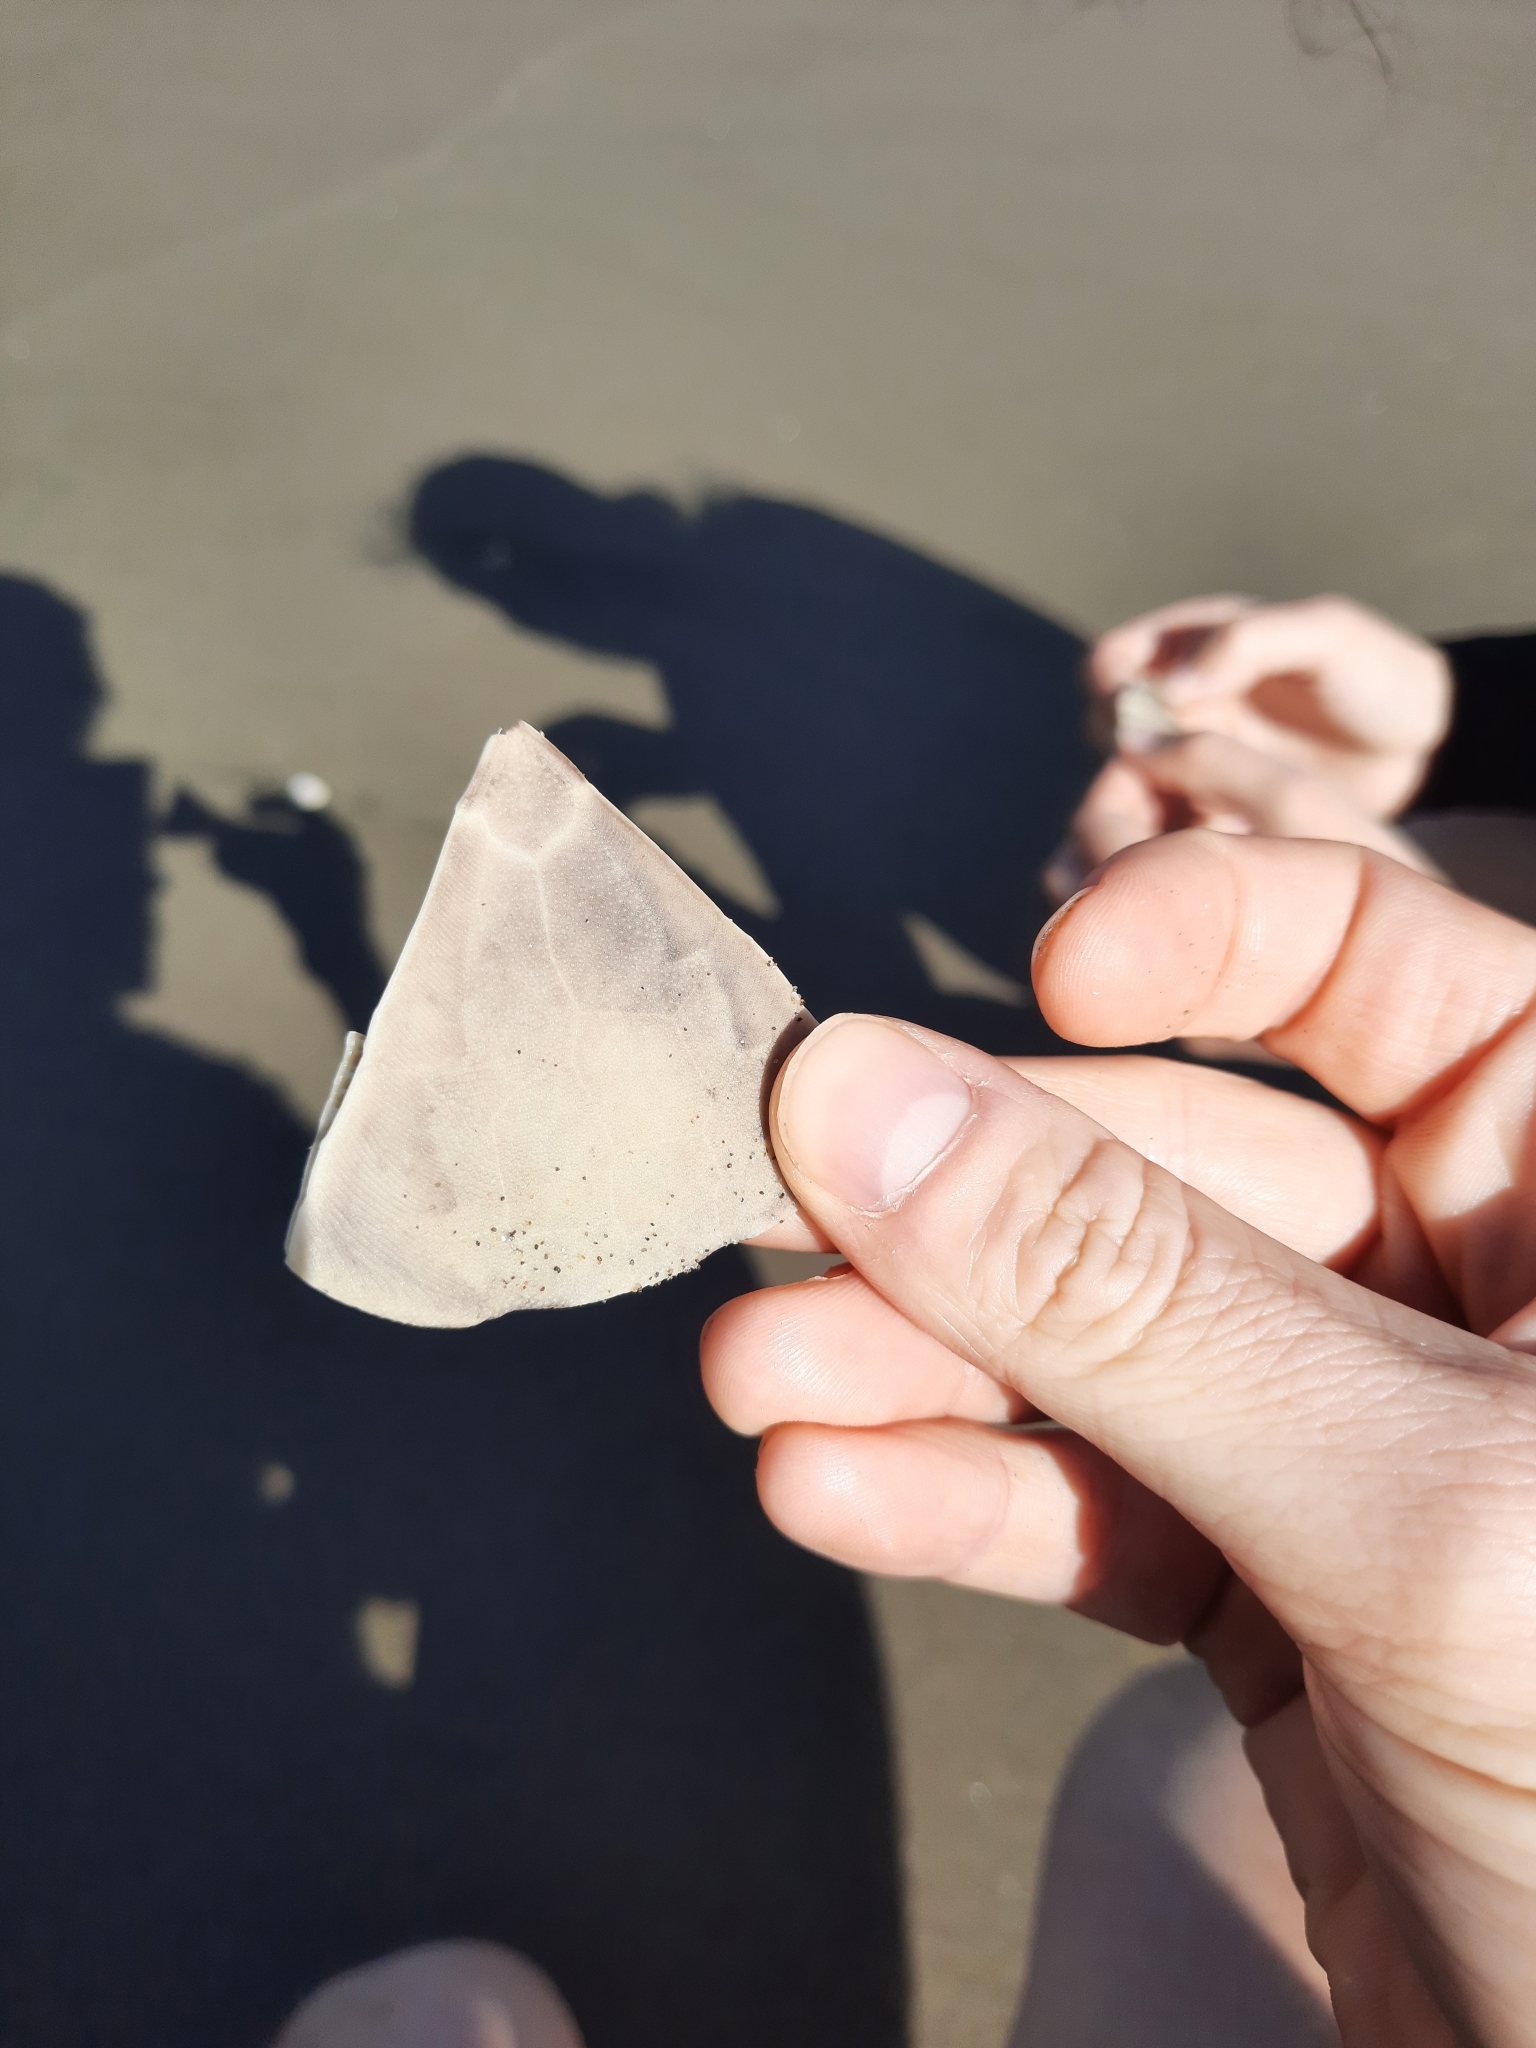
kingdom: Animalia
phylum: Echinodermata
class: Echinoidea
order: Clypeasteroida
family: Clypeasteridae
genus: Fellaster
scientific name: Fellaster zelandiae
